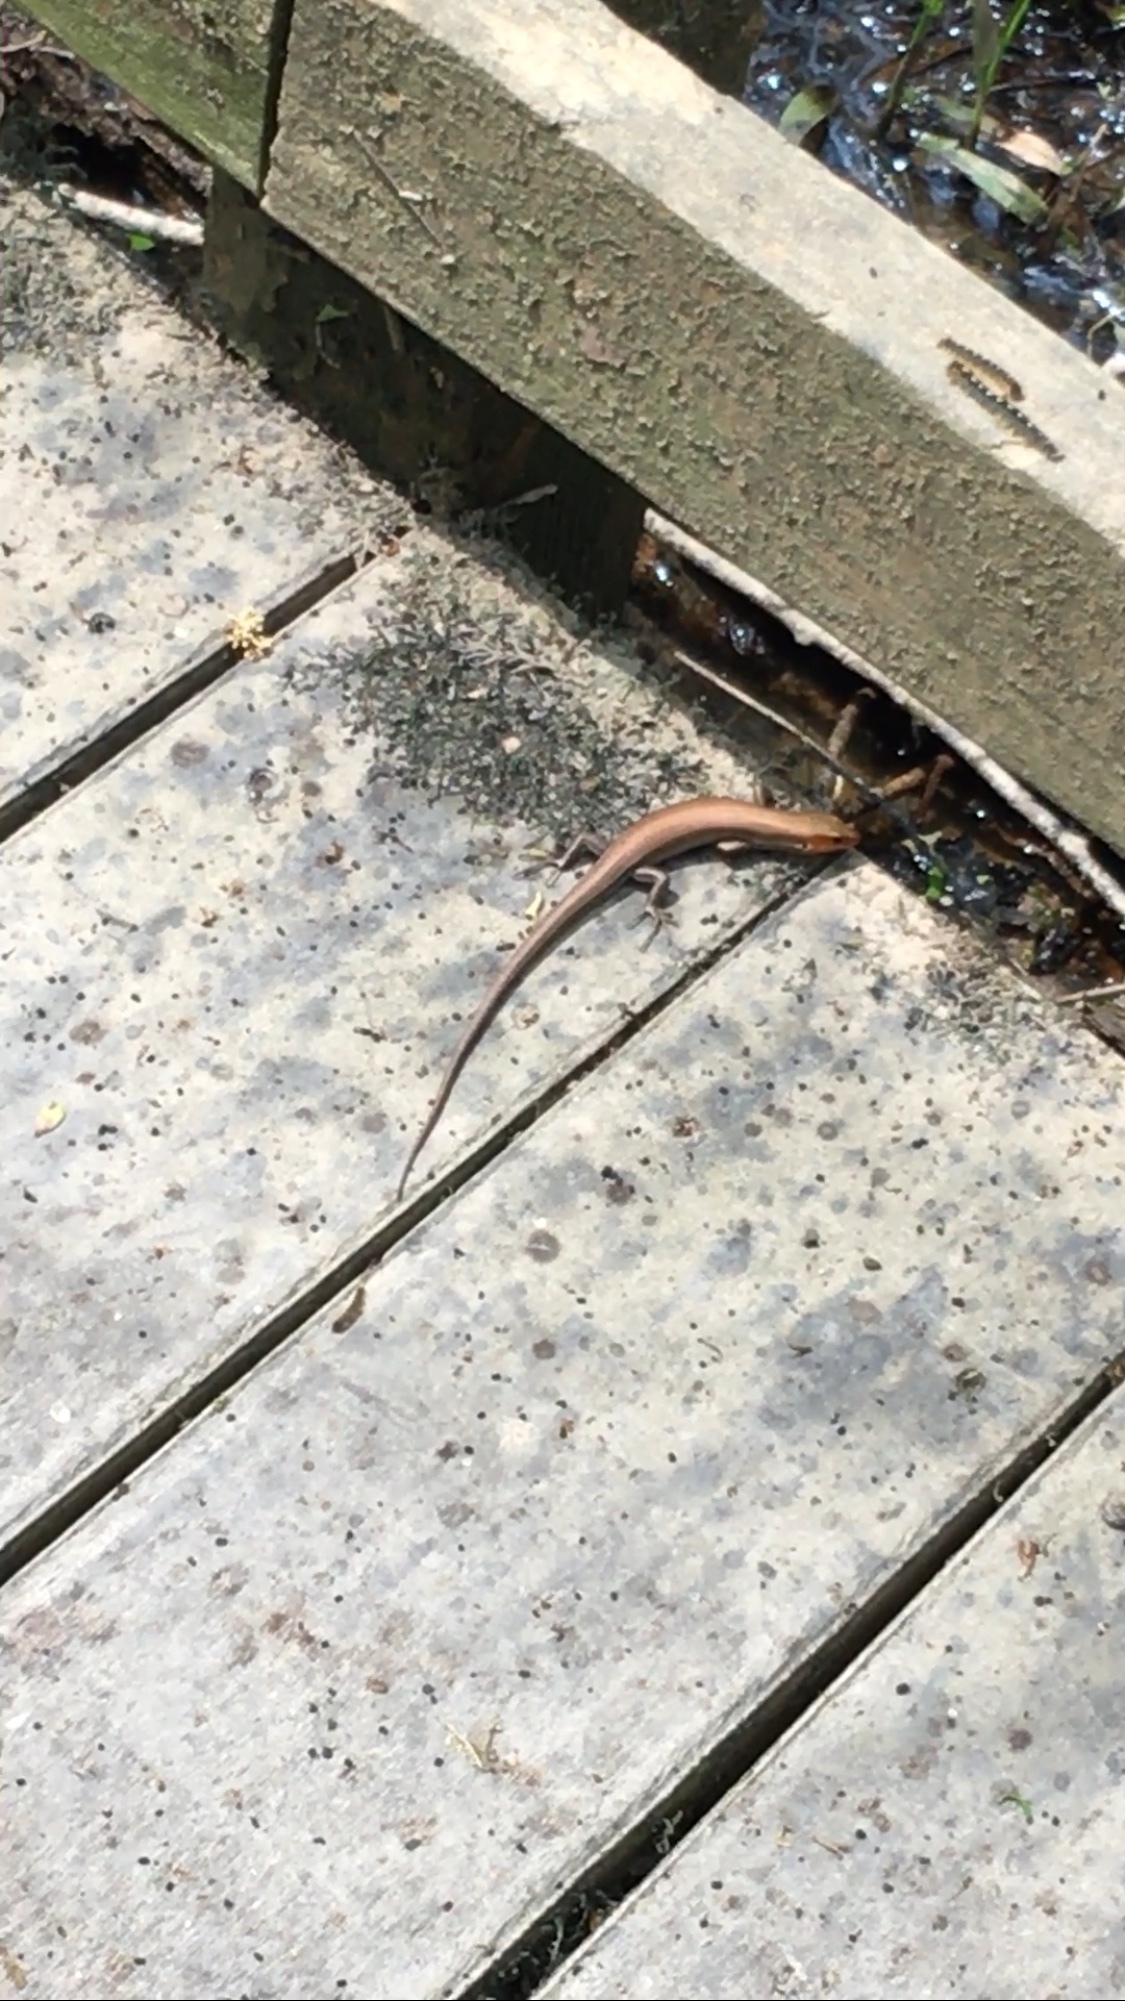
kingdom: Animalia
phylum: Chordata
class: Squamata
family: Scincidae
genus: Plestiodon
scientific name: Plestiodon fasciatus
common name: Five-lined skink
